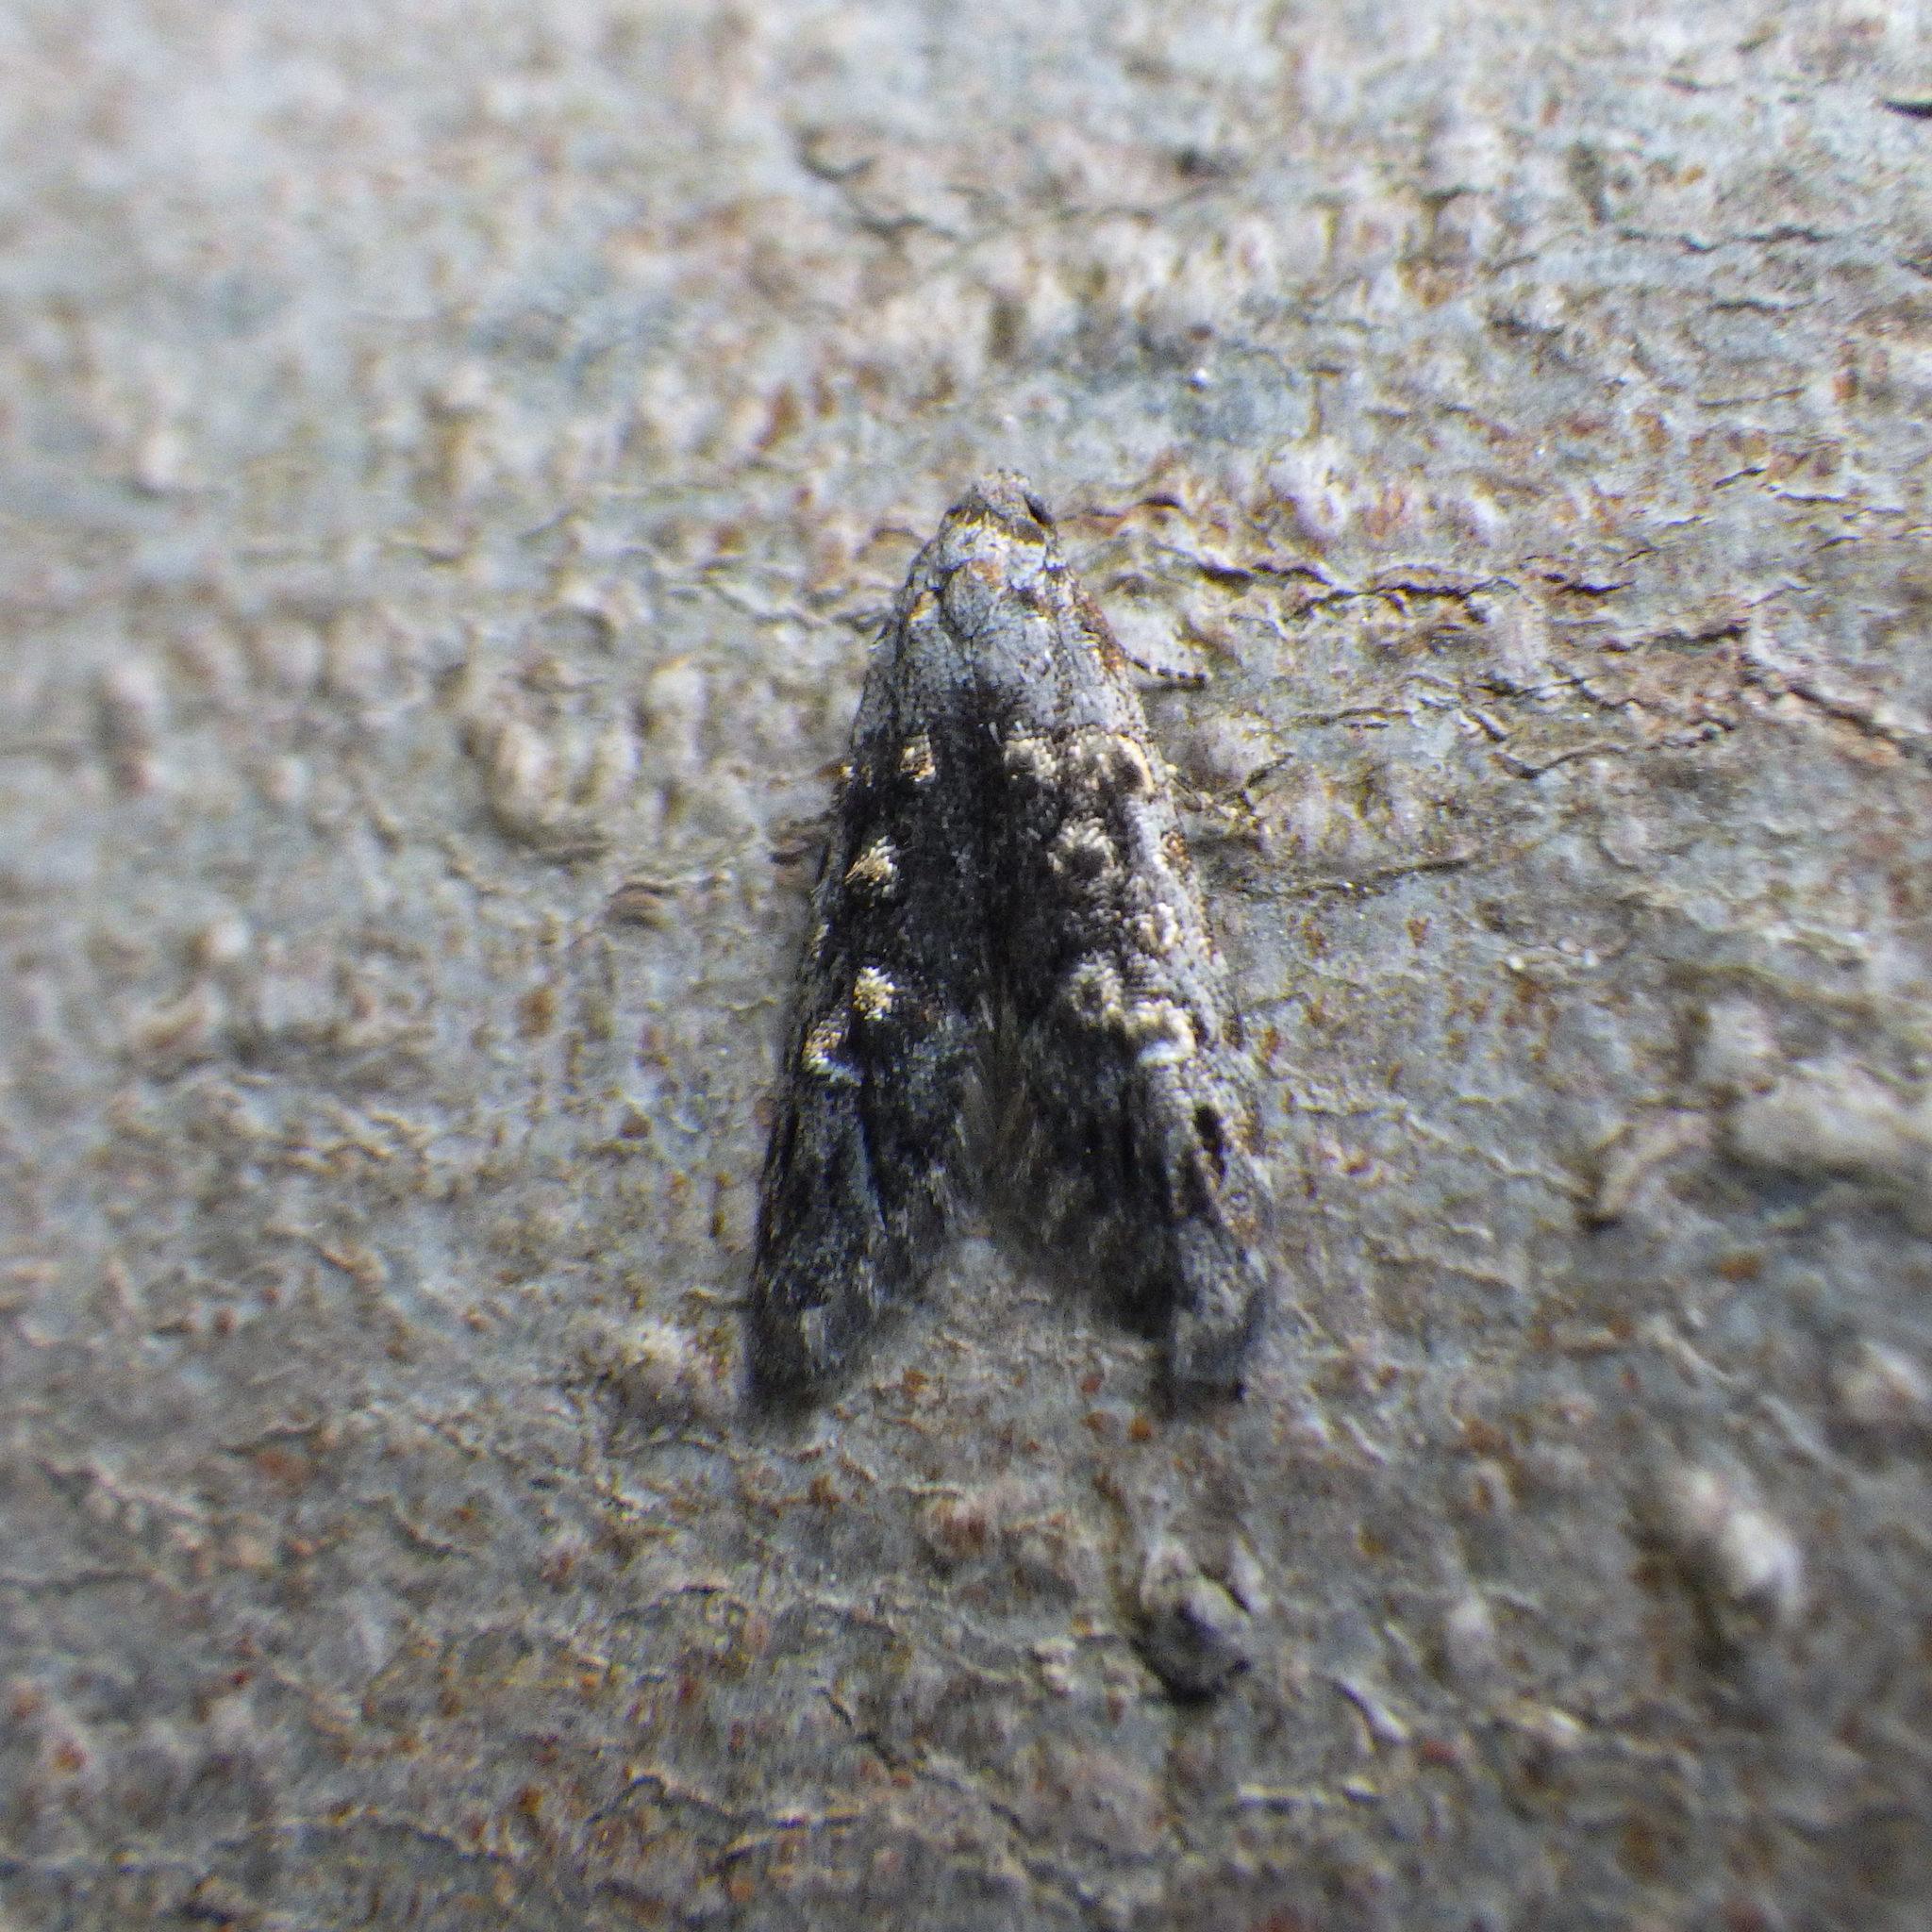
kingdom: Animalia
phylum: Arthropoda
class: Insecta
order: Lepidoptera
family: Carposinidae
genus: Bondia
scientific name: Bondia crescentella
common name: Crescent-marked bondia
